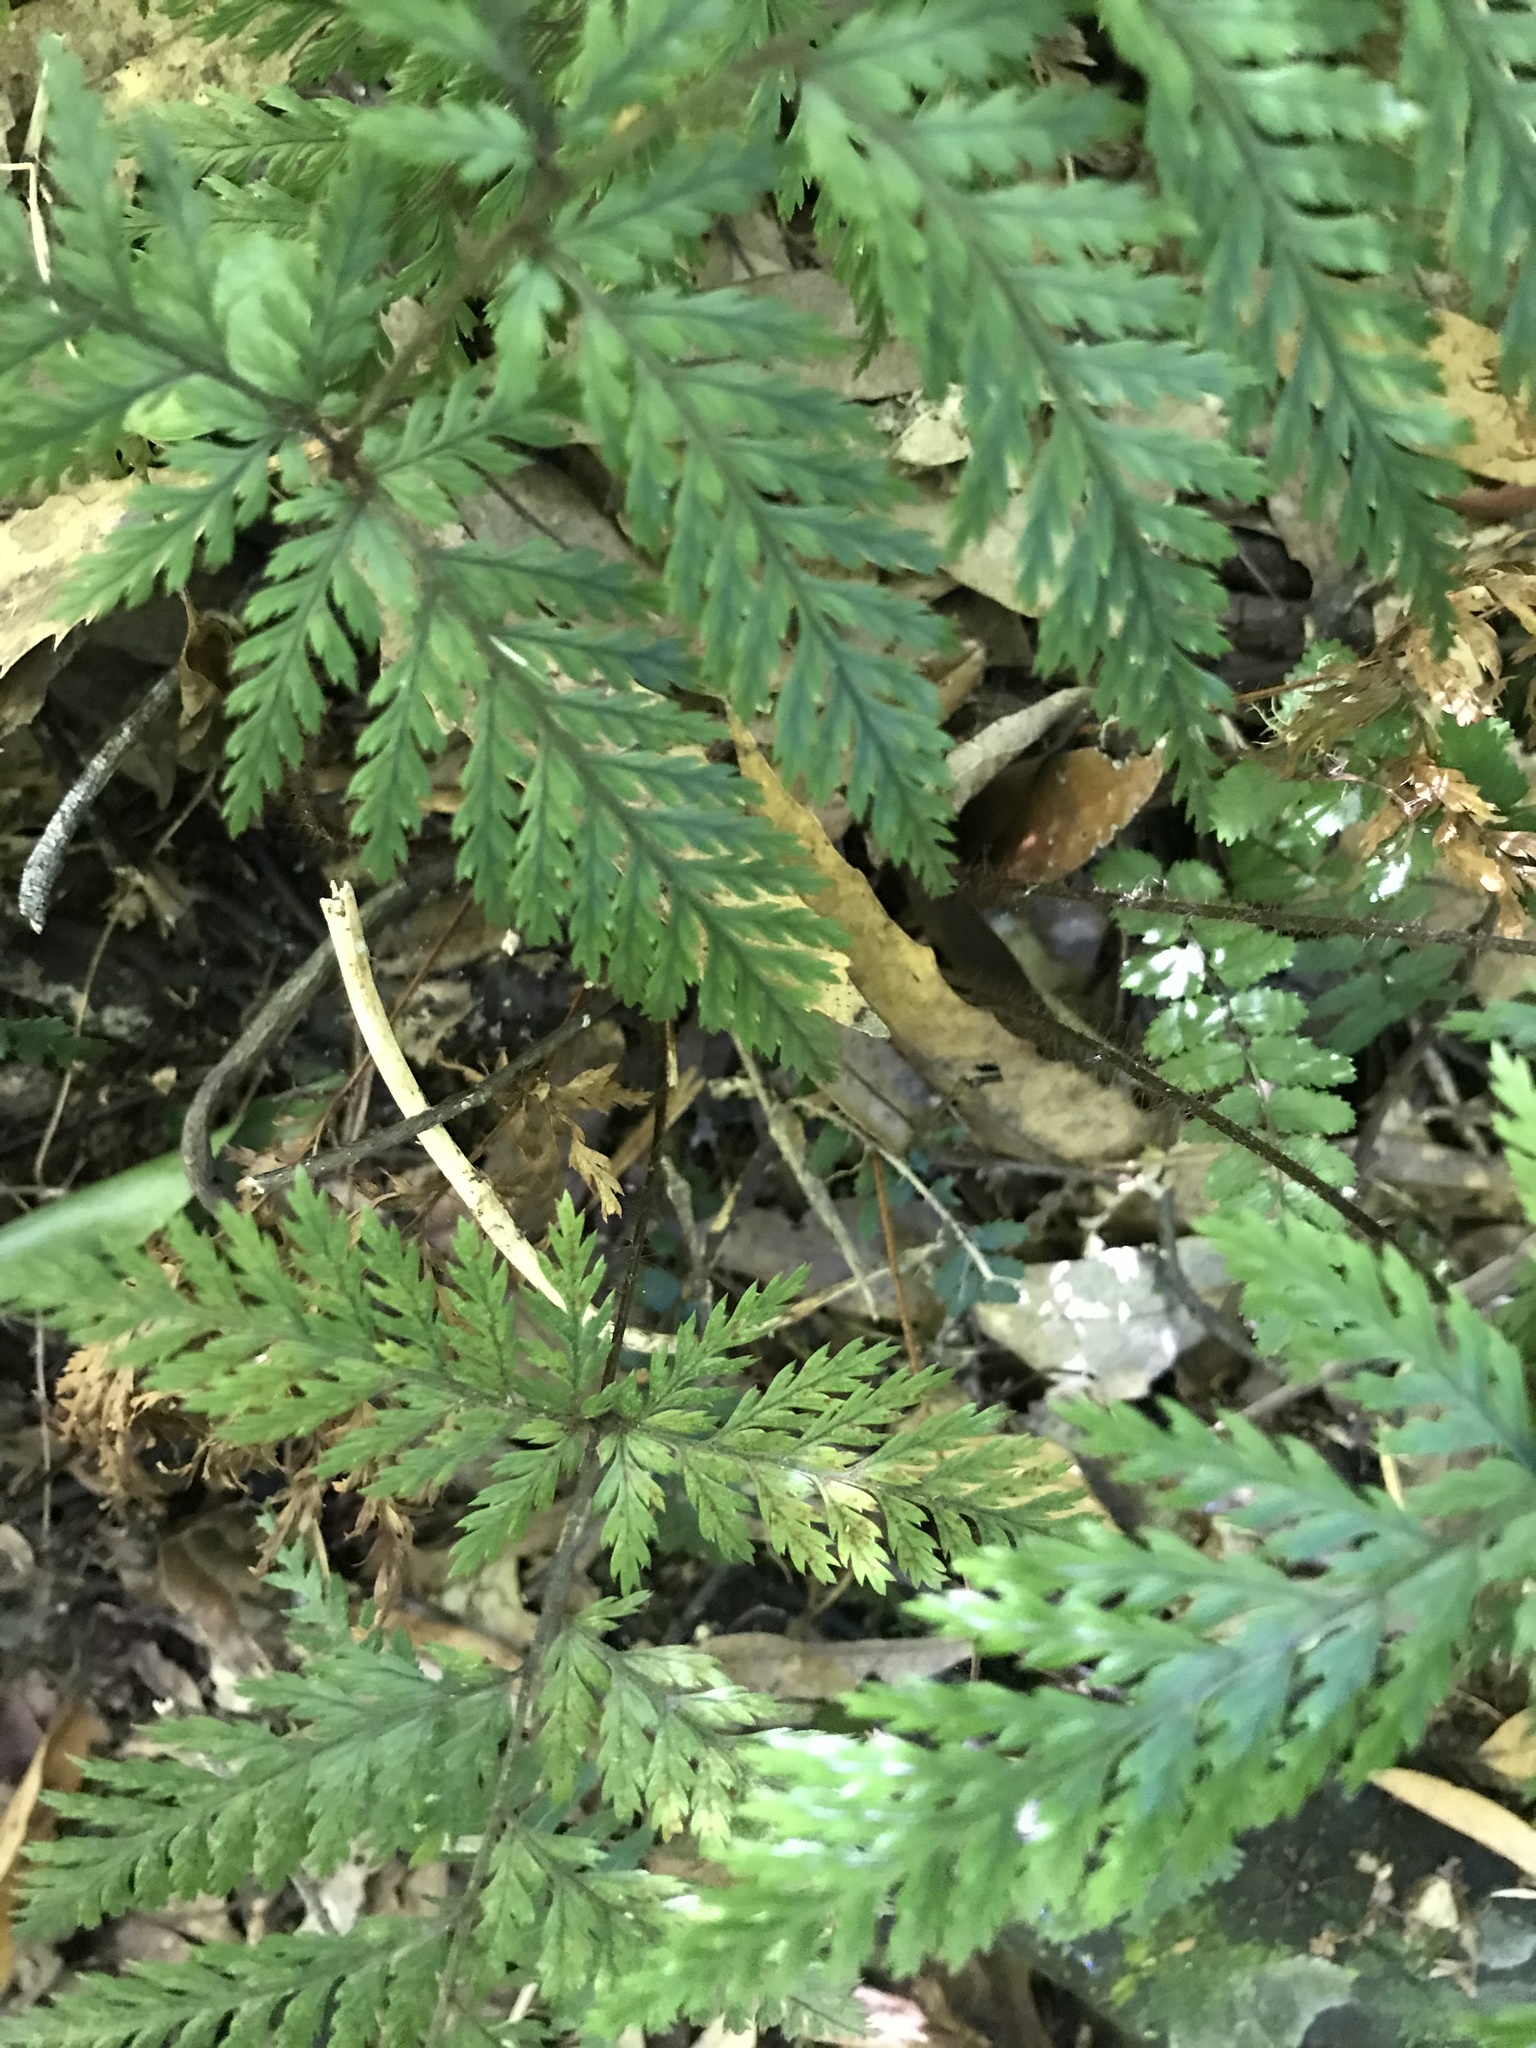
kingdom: Plantae
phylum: Tracheophyta
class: Polypodiopsida
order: Polypodiales
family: Dryopteridaceae
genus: Lastreopsis
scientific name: Lastreopsis hispida
